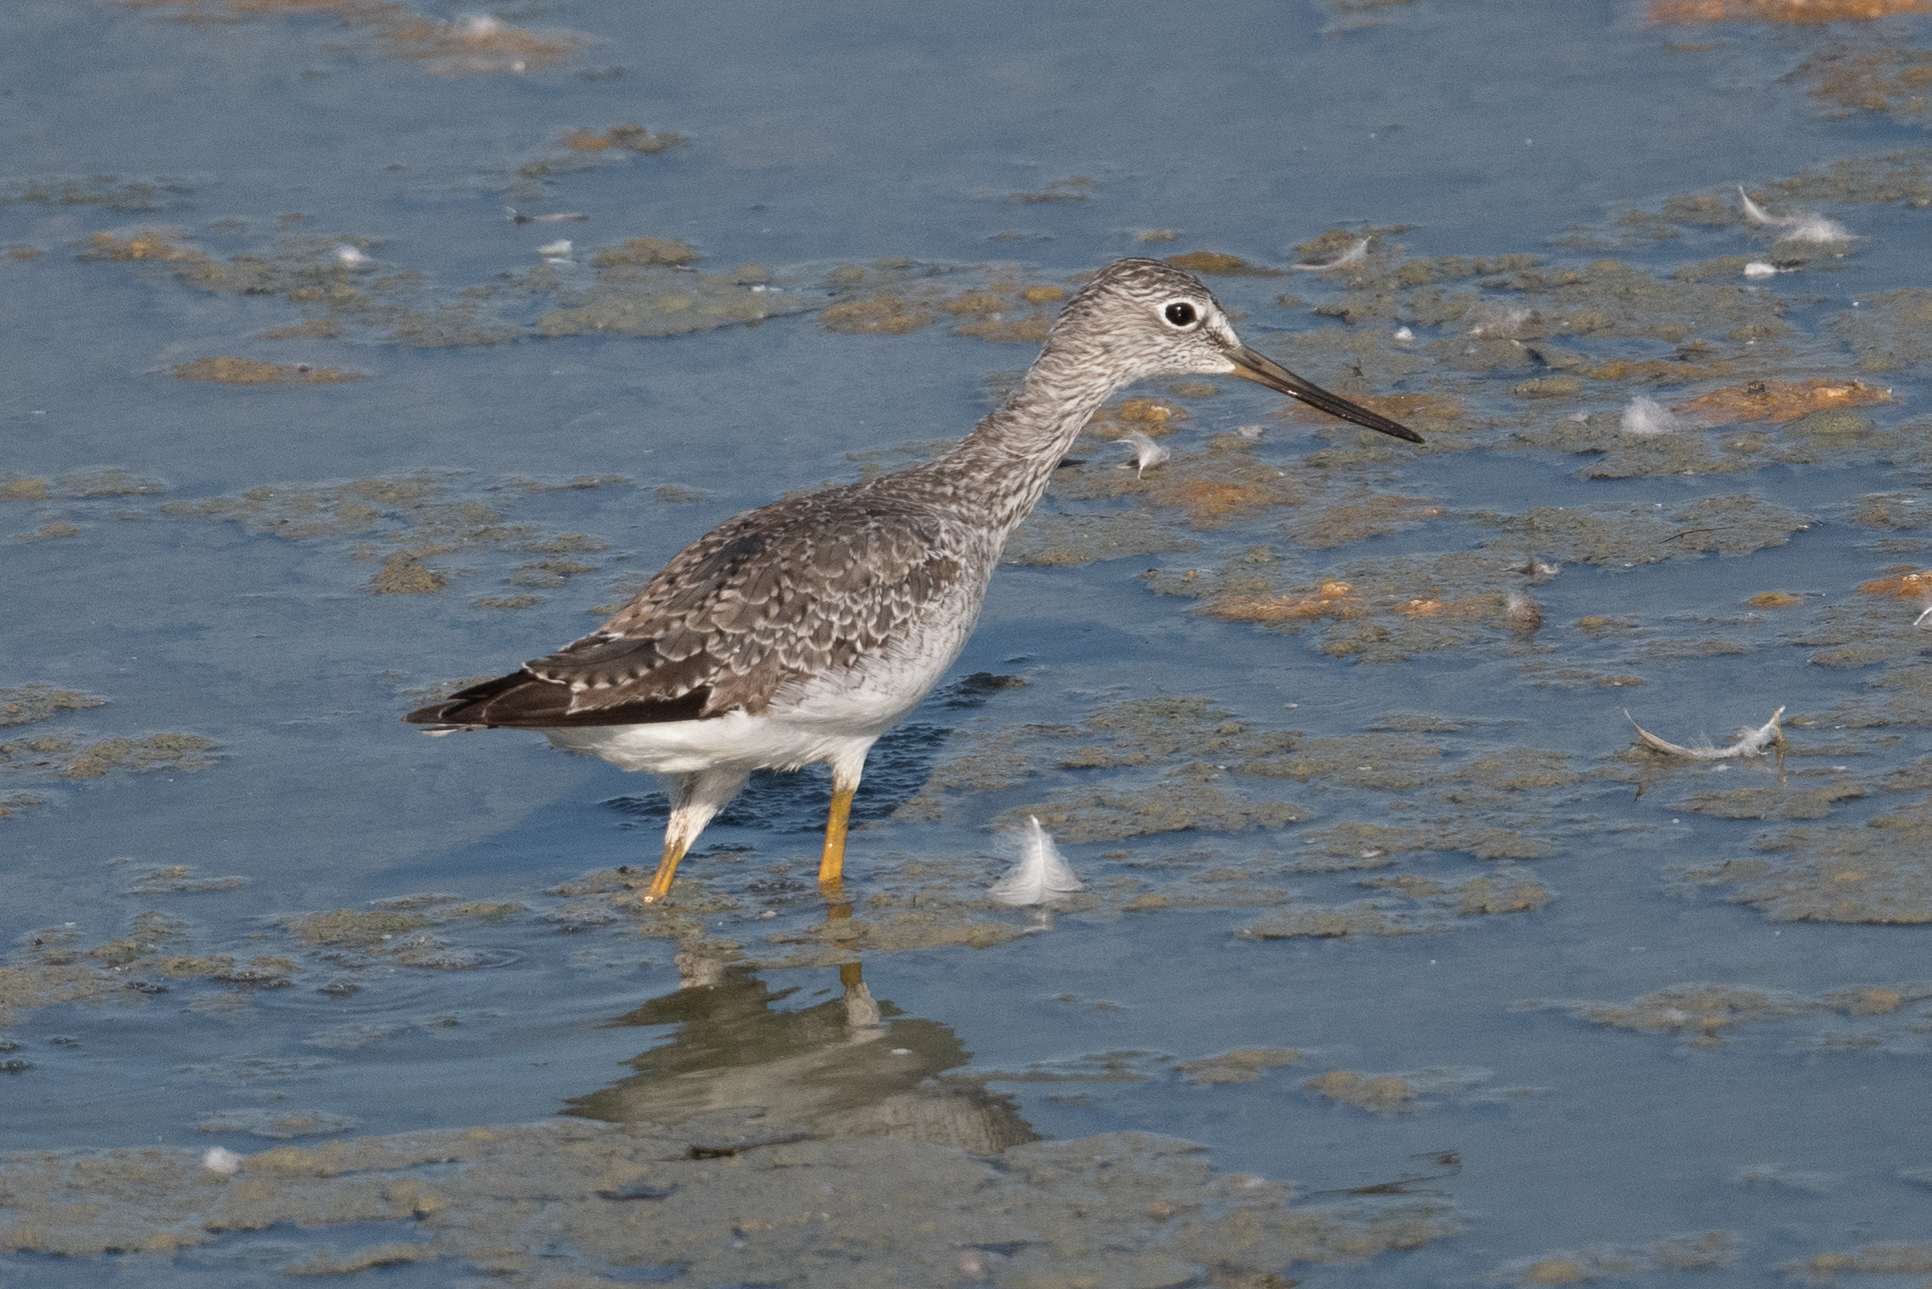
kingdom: Animalia
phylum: Chordata
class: Aves
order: Charadriiformes
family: Scolopacidae
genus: Tringa
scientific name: Tringa melanoleuca
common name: Greater yellowlegs
